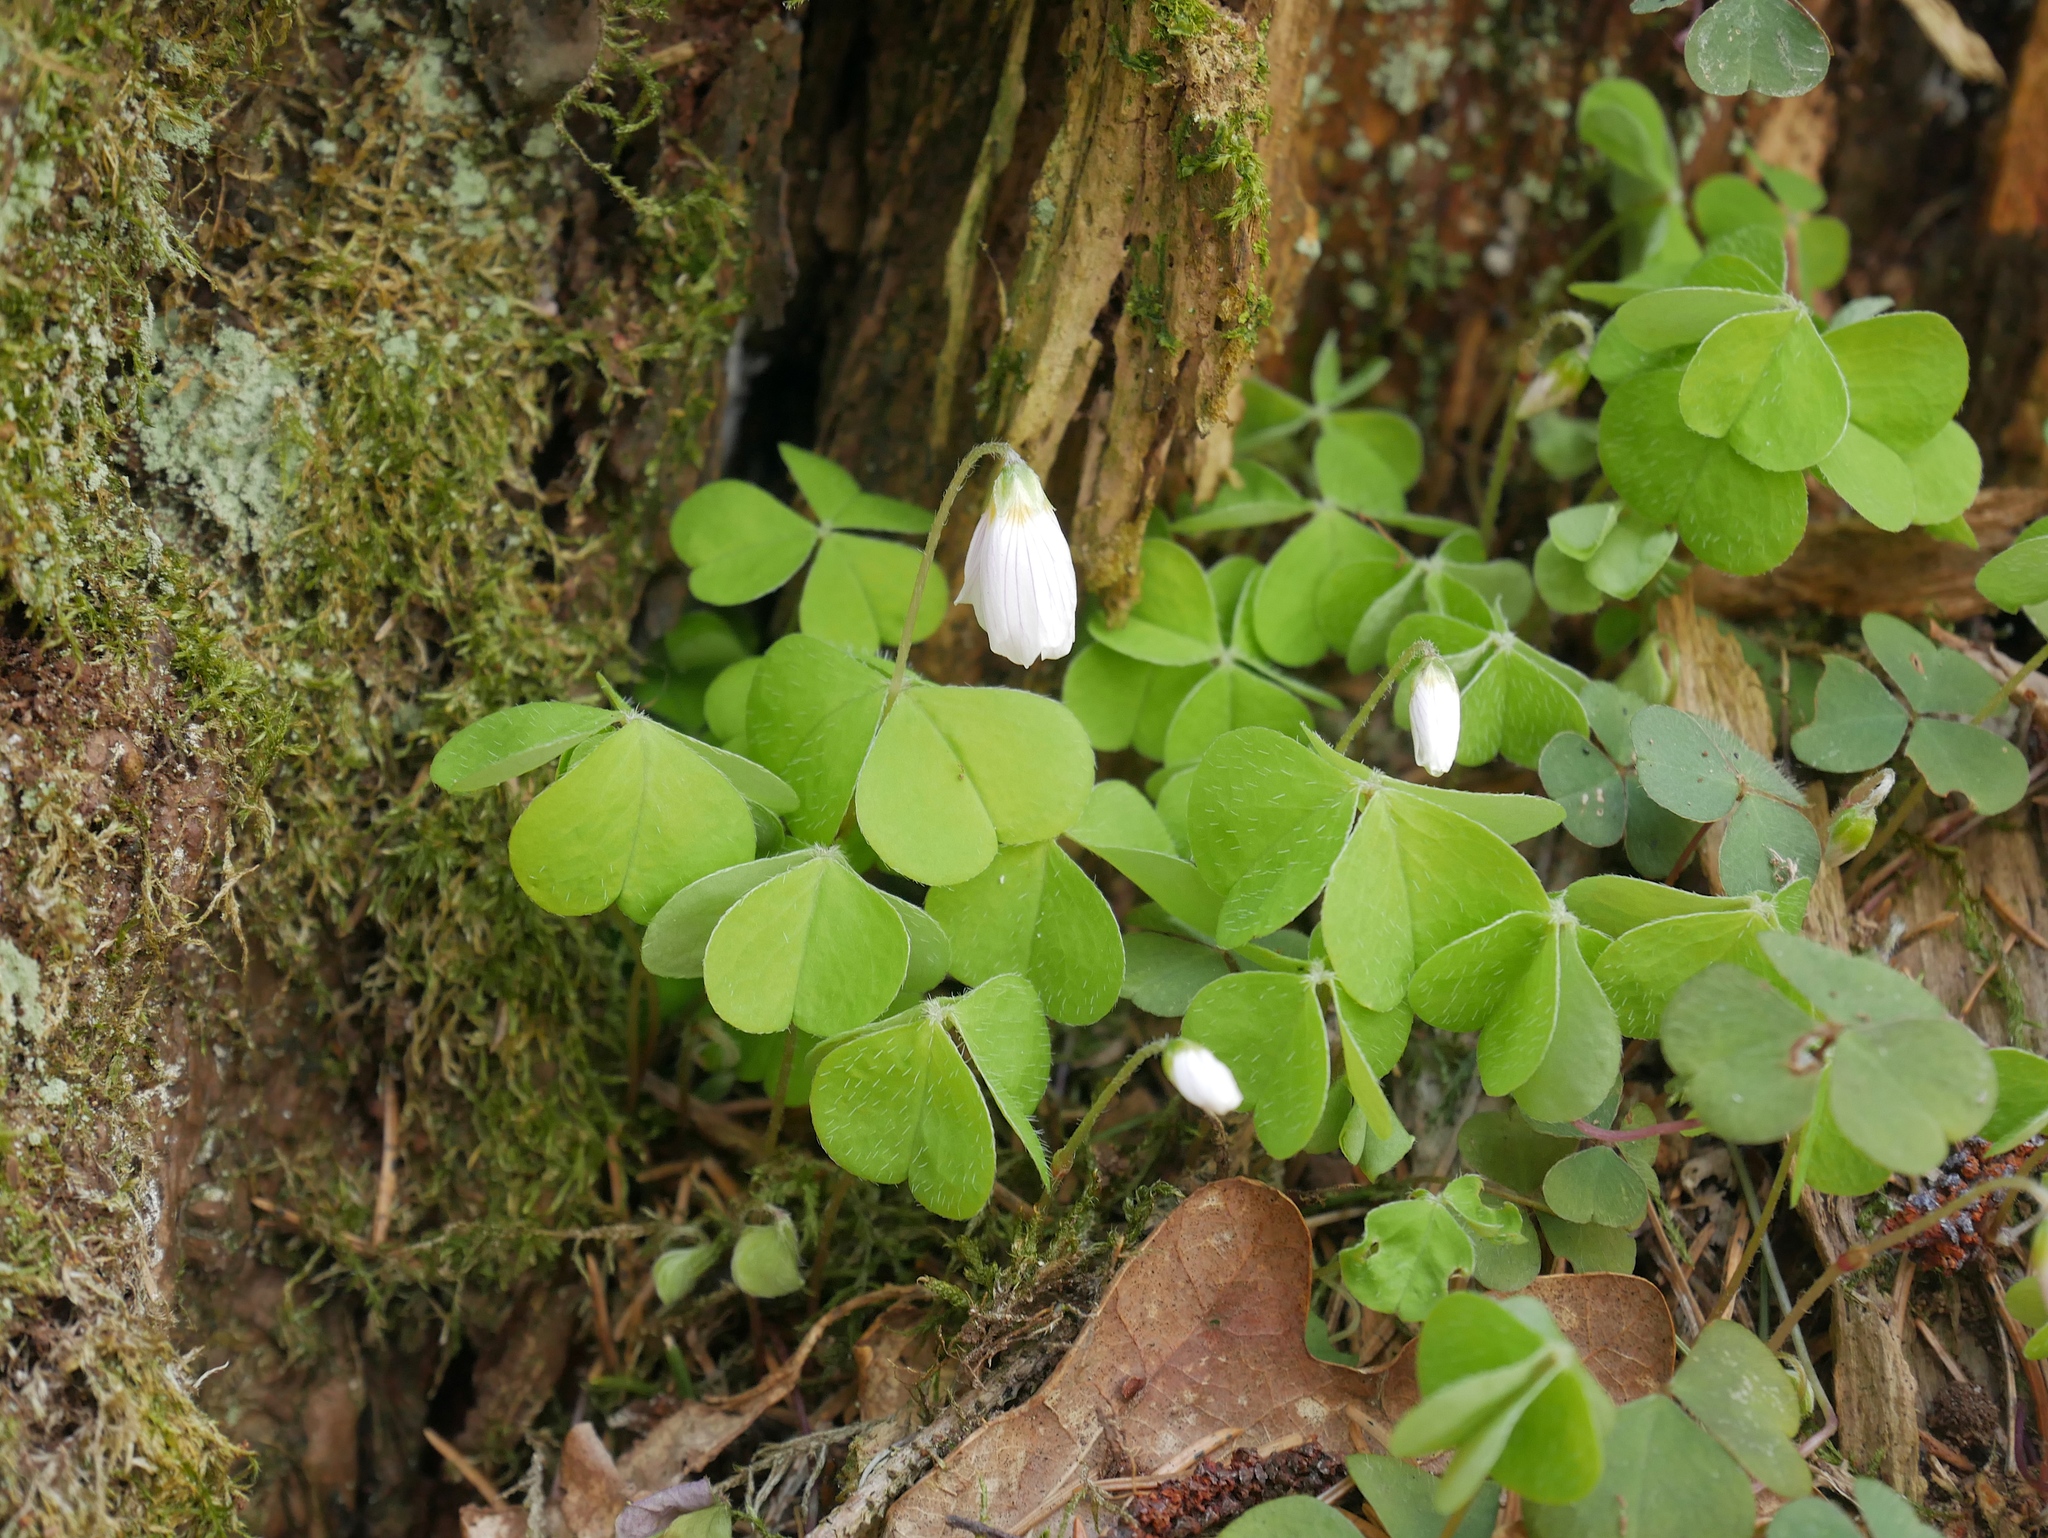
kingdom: Plantae
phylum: Tracheophyta
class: Magnoliopsida
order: Oxalidales
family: Oxalidaceae
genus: Oxalis
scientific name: Oxalis acetosella
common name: Wood-sorrel
